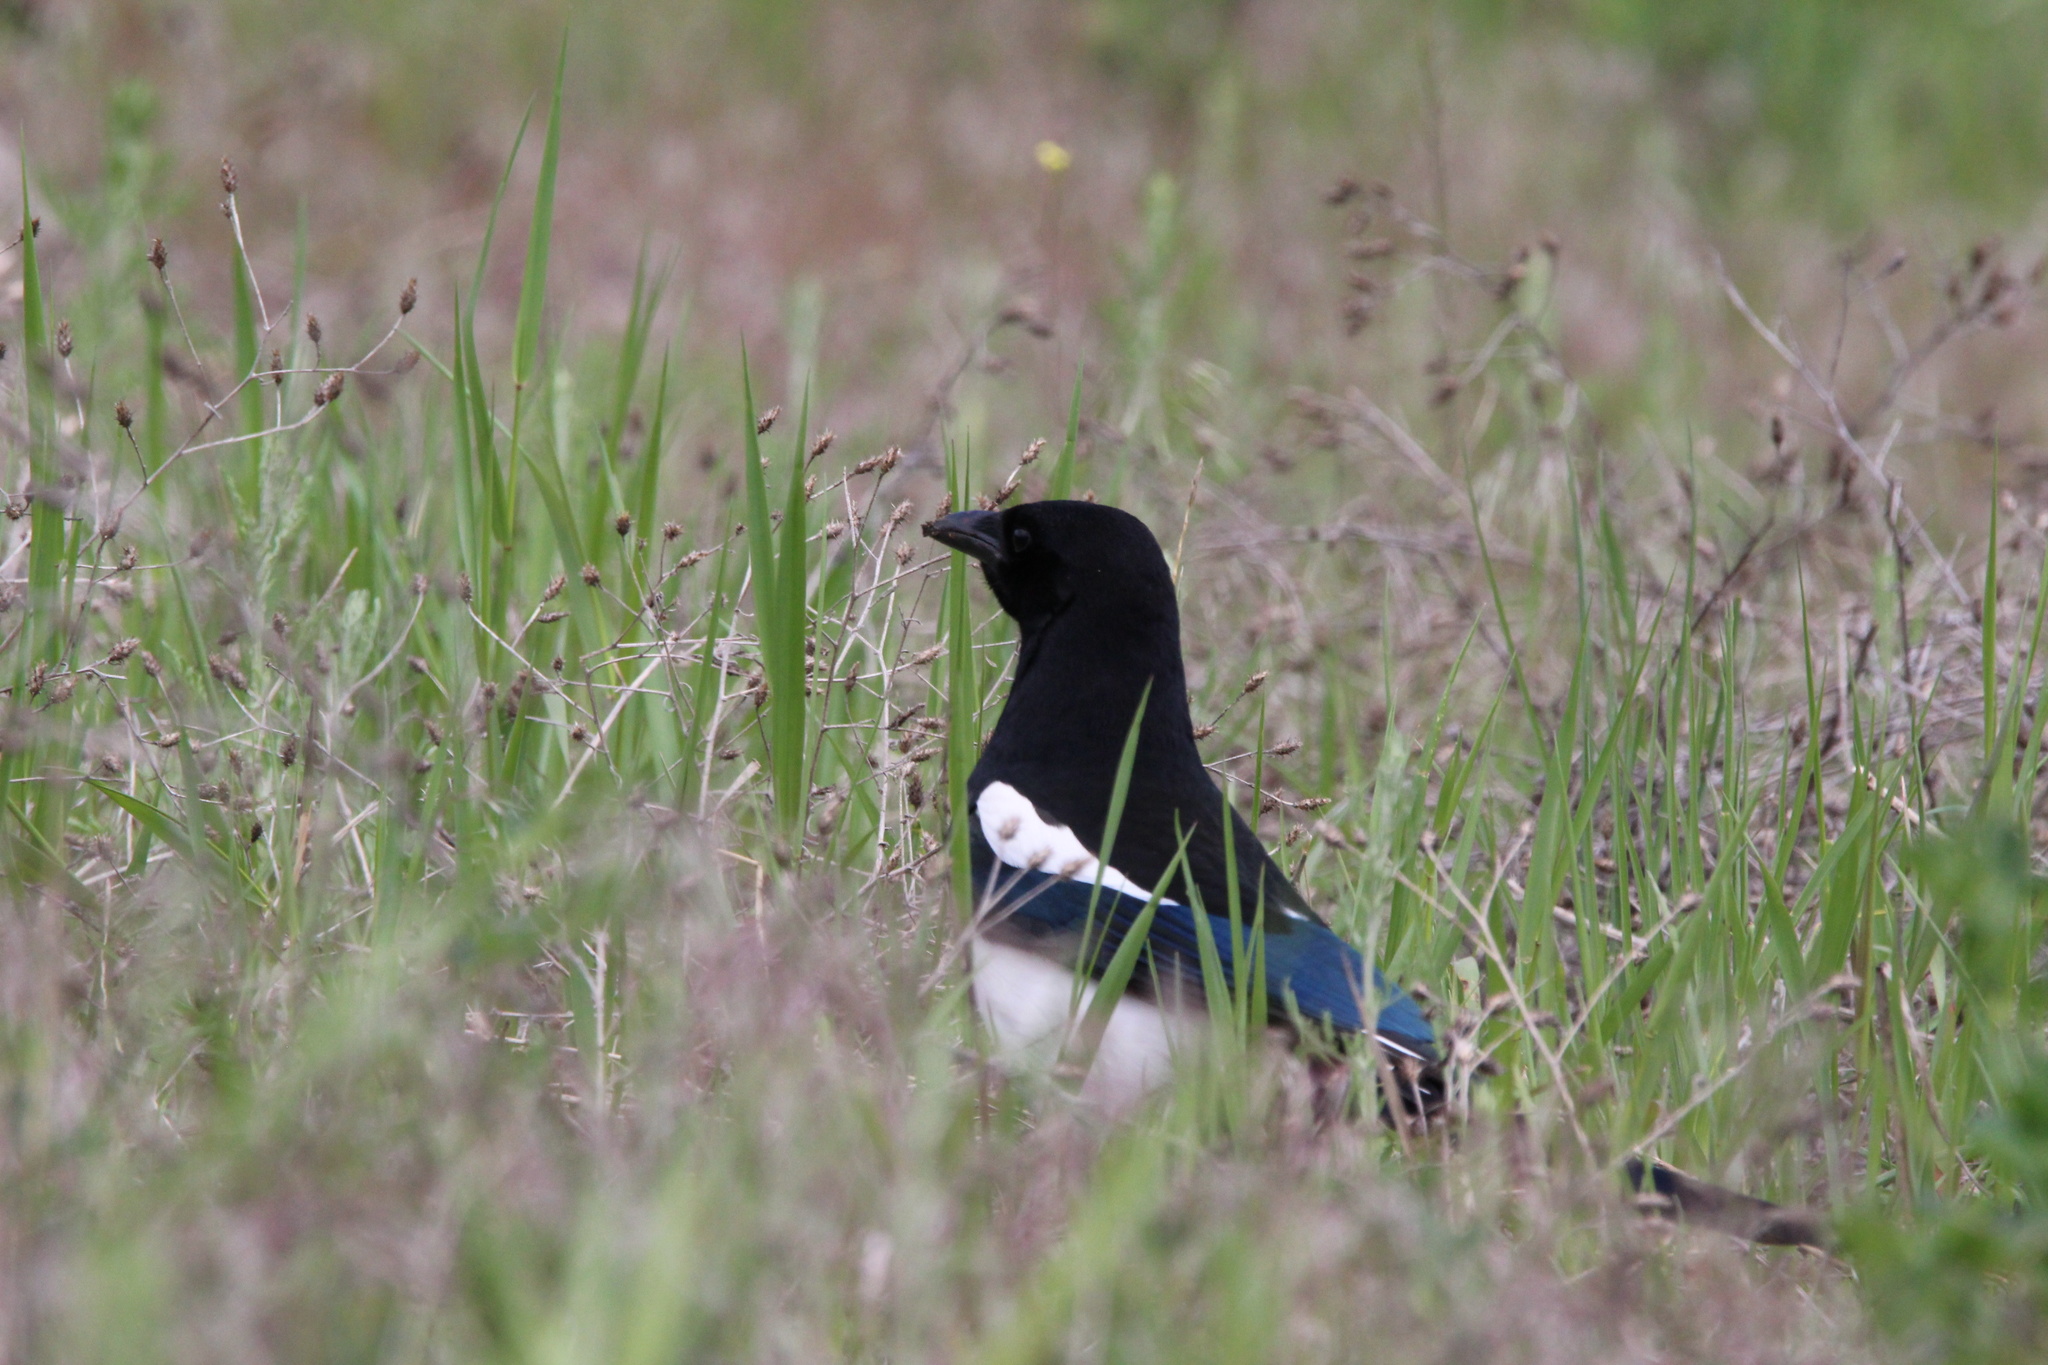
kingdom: Animalia
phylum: Chordata
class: Aves
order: Passeriformes
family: Corvidae
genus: Pica
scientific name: Pica hudsonia
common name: Black-billed magpie
